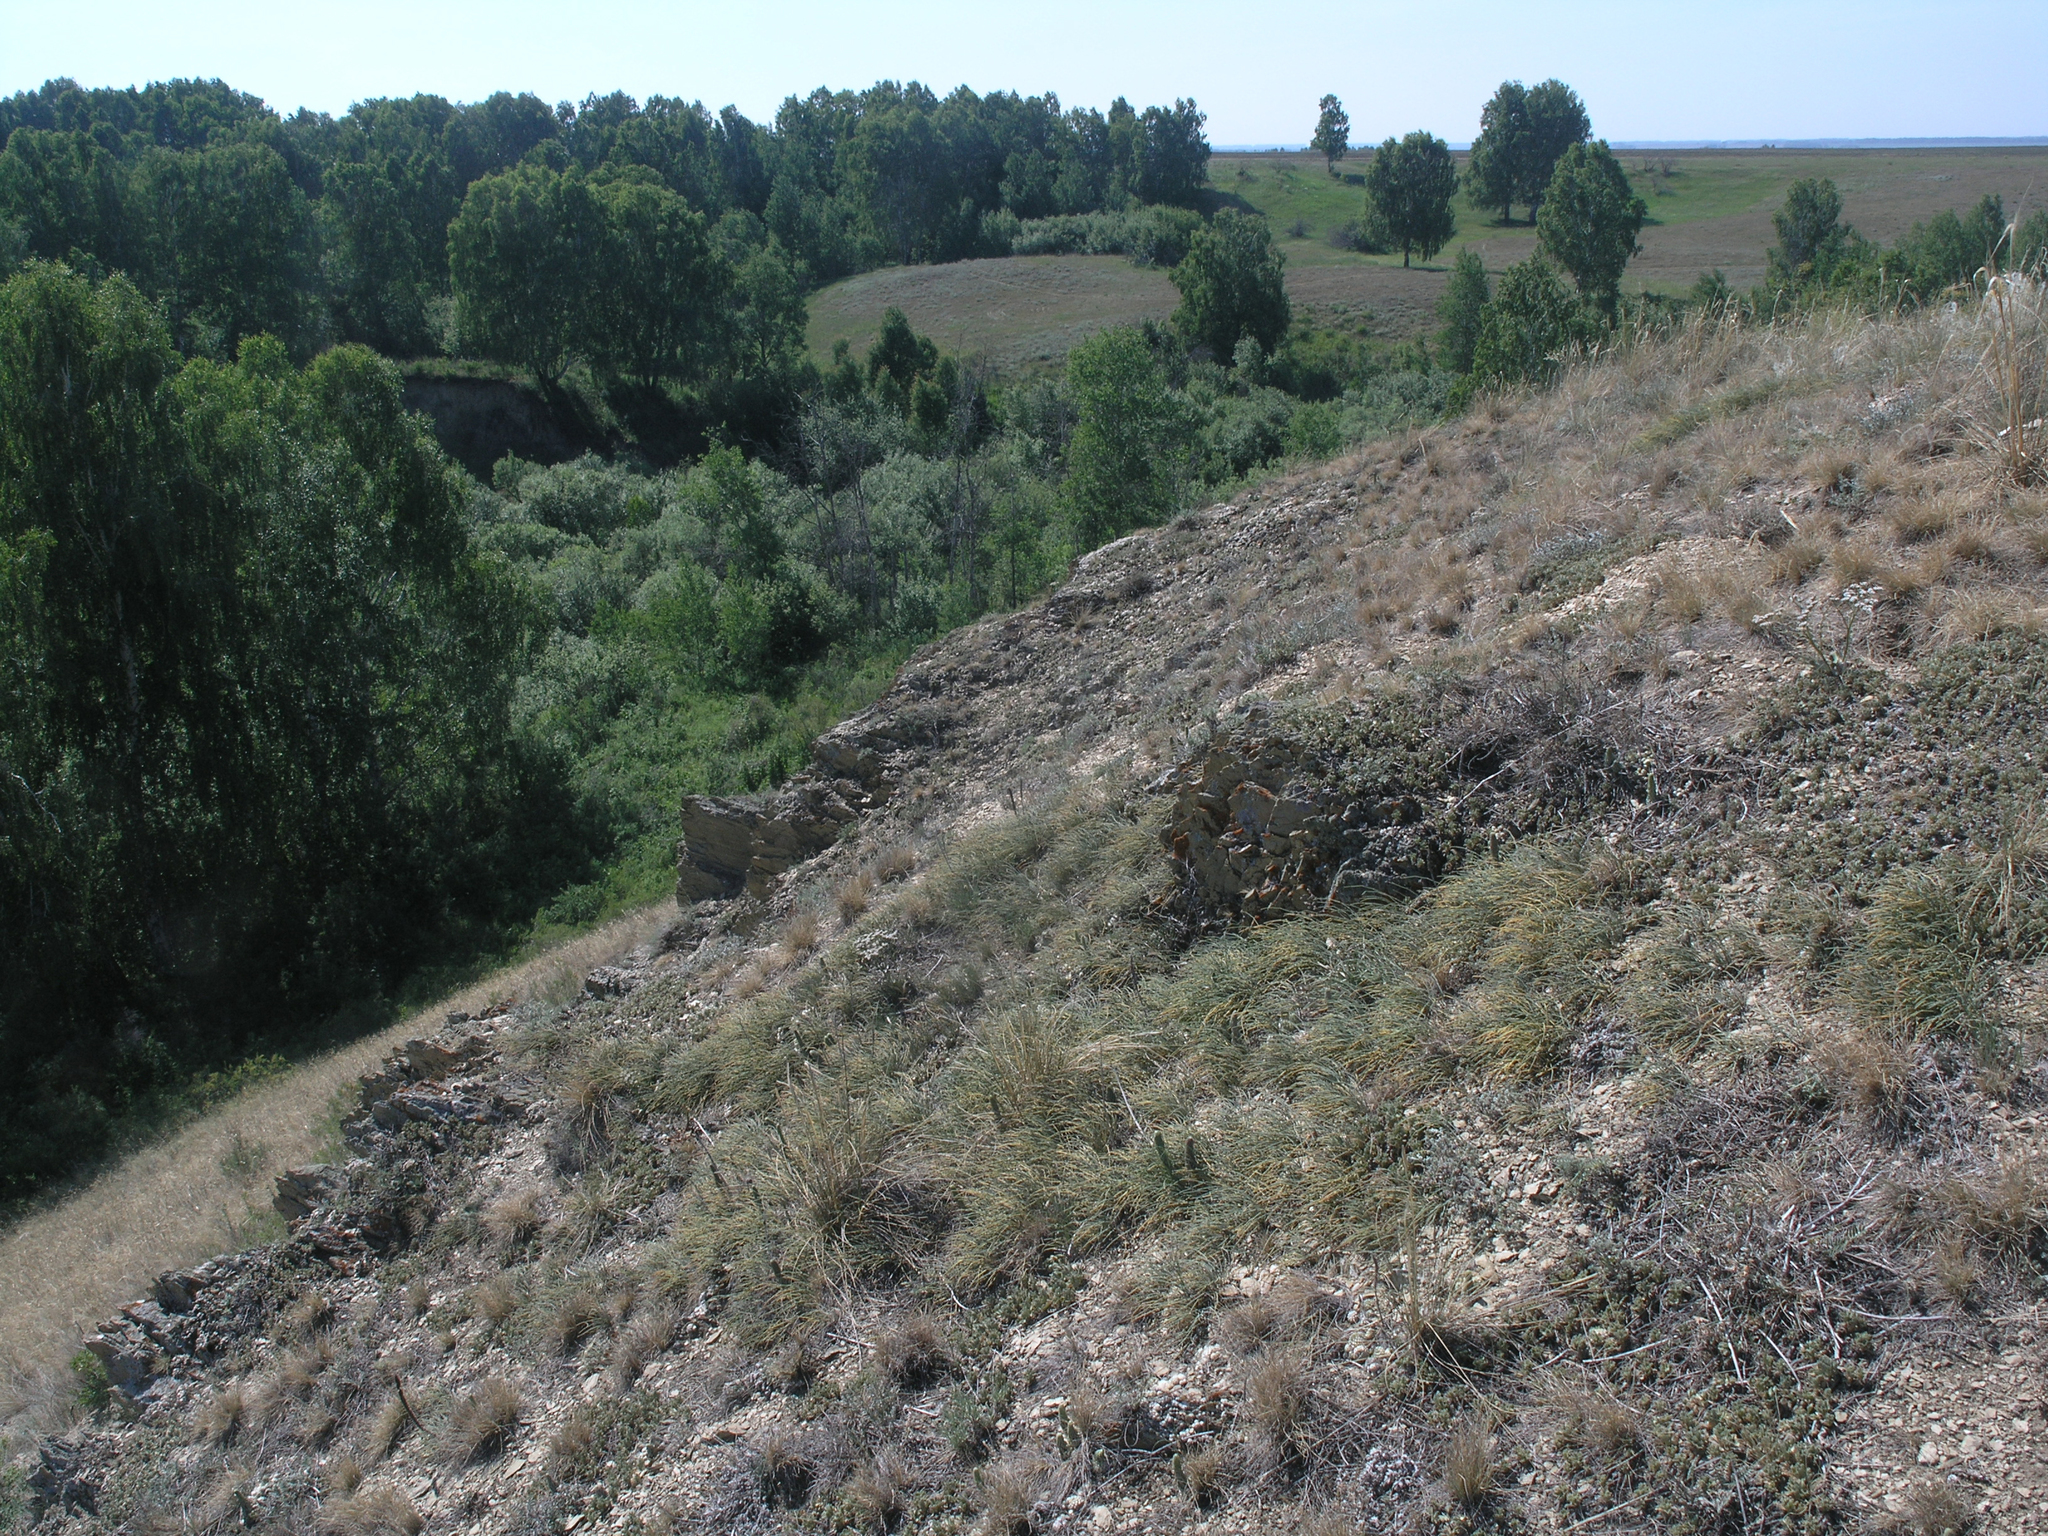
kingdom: Plantae
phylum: Tracheophyta
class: Gnetopsida
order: Ephedrales
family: Ephedraceae
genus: Ephedra
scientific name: Ephedra distachya
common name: Sea grape
